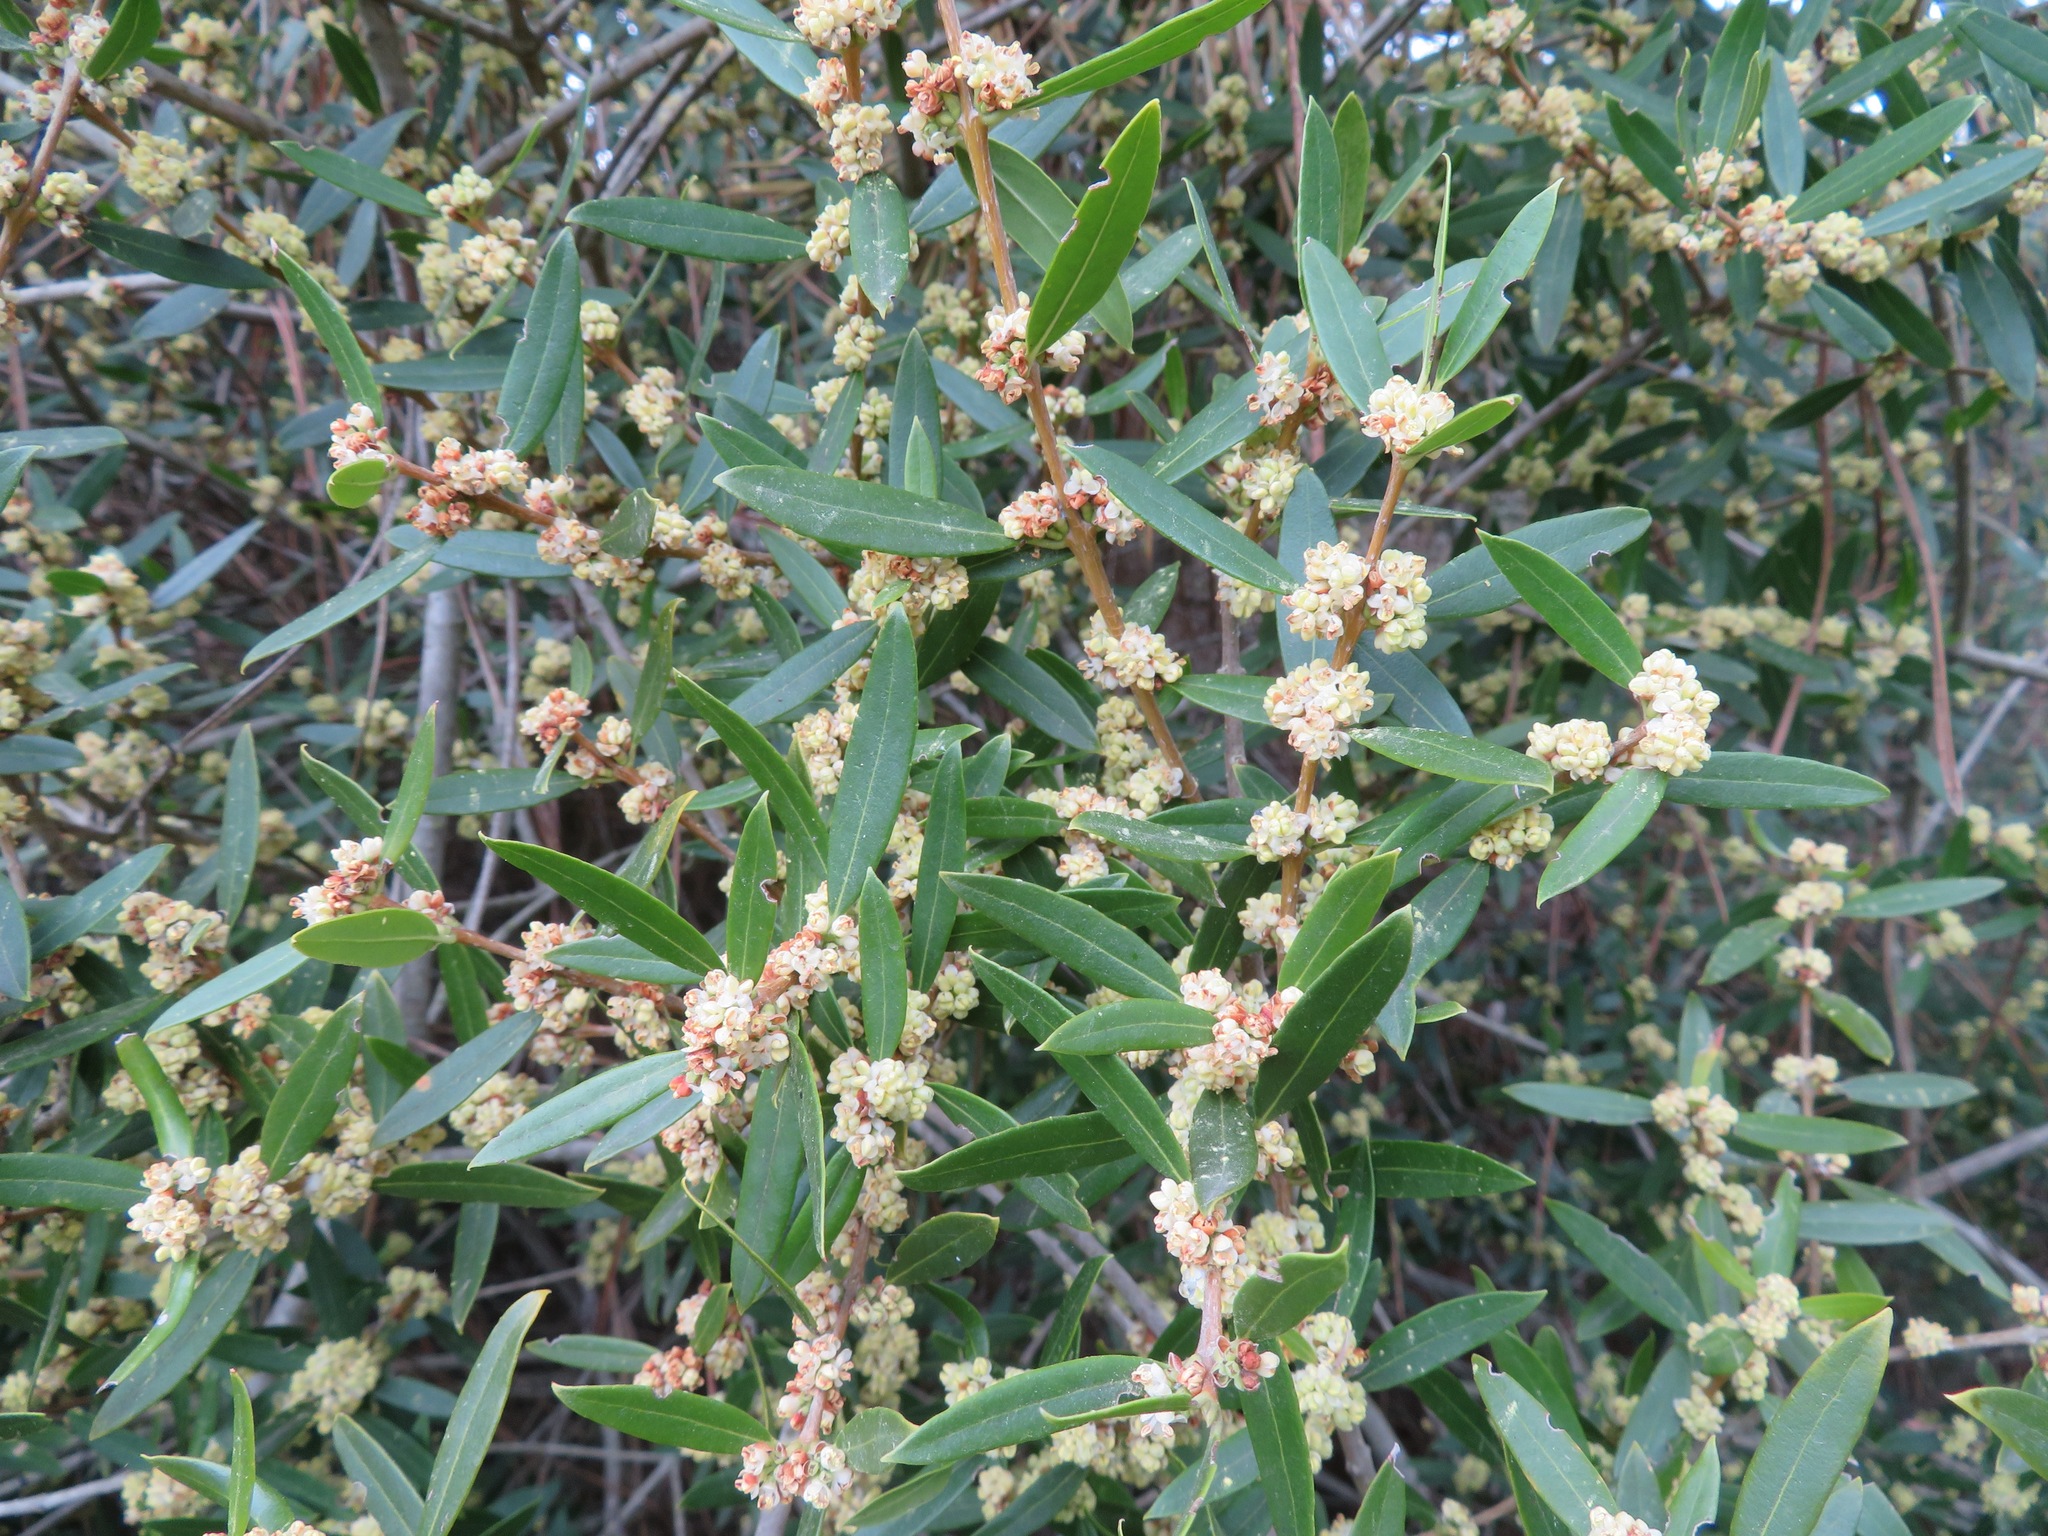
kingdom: Plantae
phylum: Tracheophyta
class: Magnoliopsida
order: Lamiales
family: Oleaceae
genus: Phillyrea
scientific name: Phillyrea angustifolia
